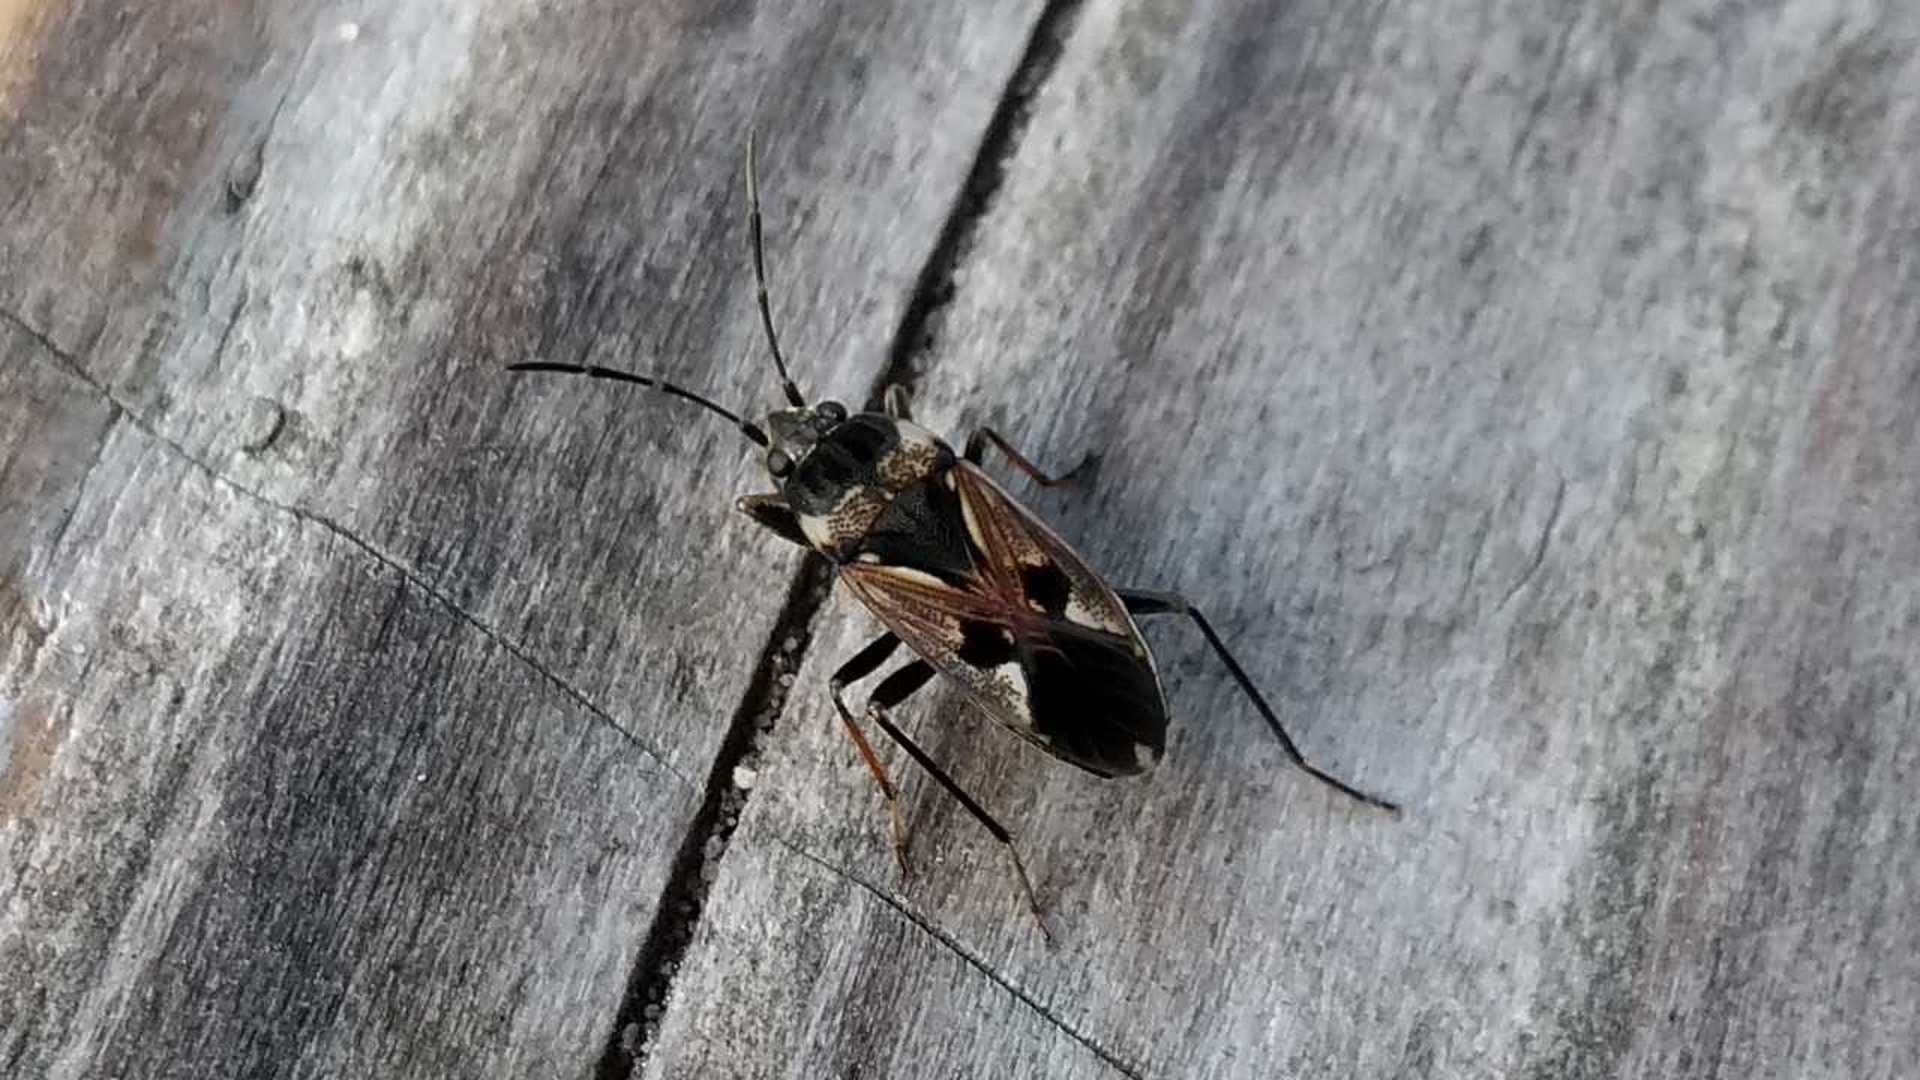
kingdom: Animalia
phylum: Arthropoda
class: Insecta
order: Hemiptera
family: Rhyparochromidae
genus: Rhyparochromus
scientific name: Rhyparochromus vulgaris
